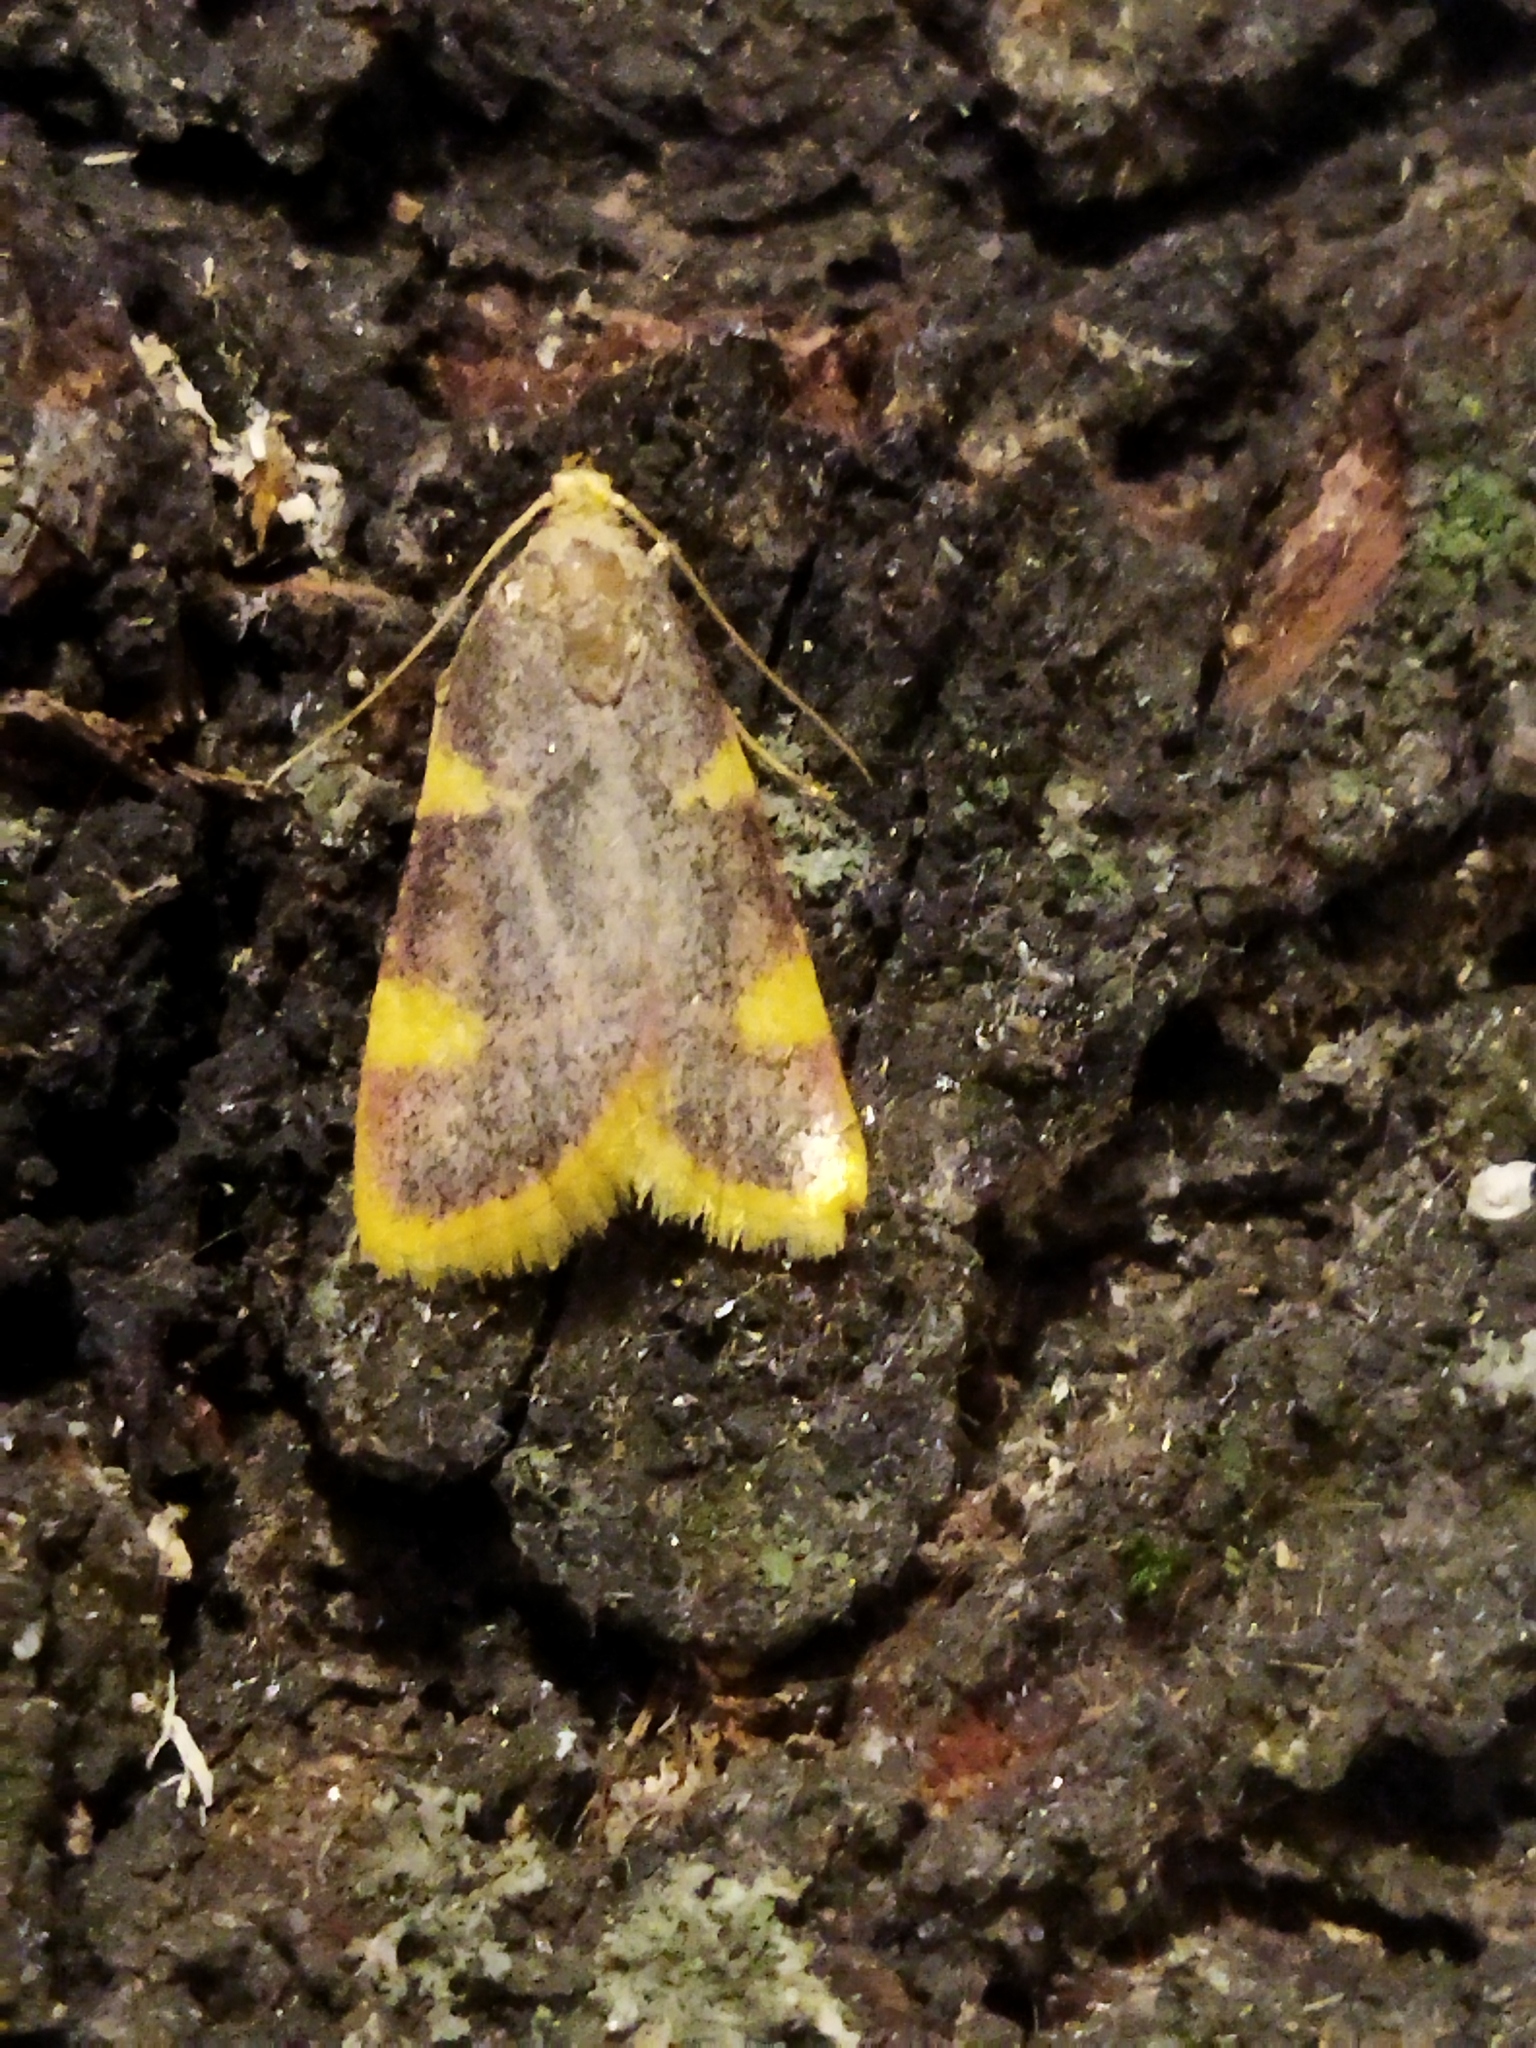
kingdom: Animalia
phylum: Arthropoda
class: Insecta
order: Lepidoptera
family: Pyralidae
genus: Hypsopygia
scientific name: Hypsopygia costalis
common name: Gold triangle
